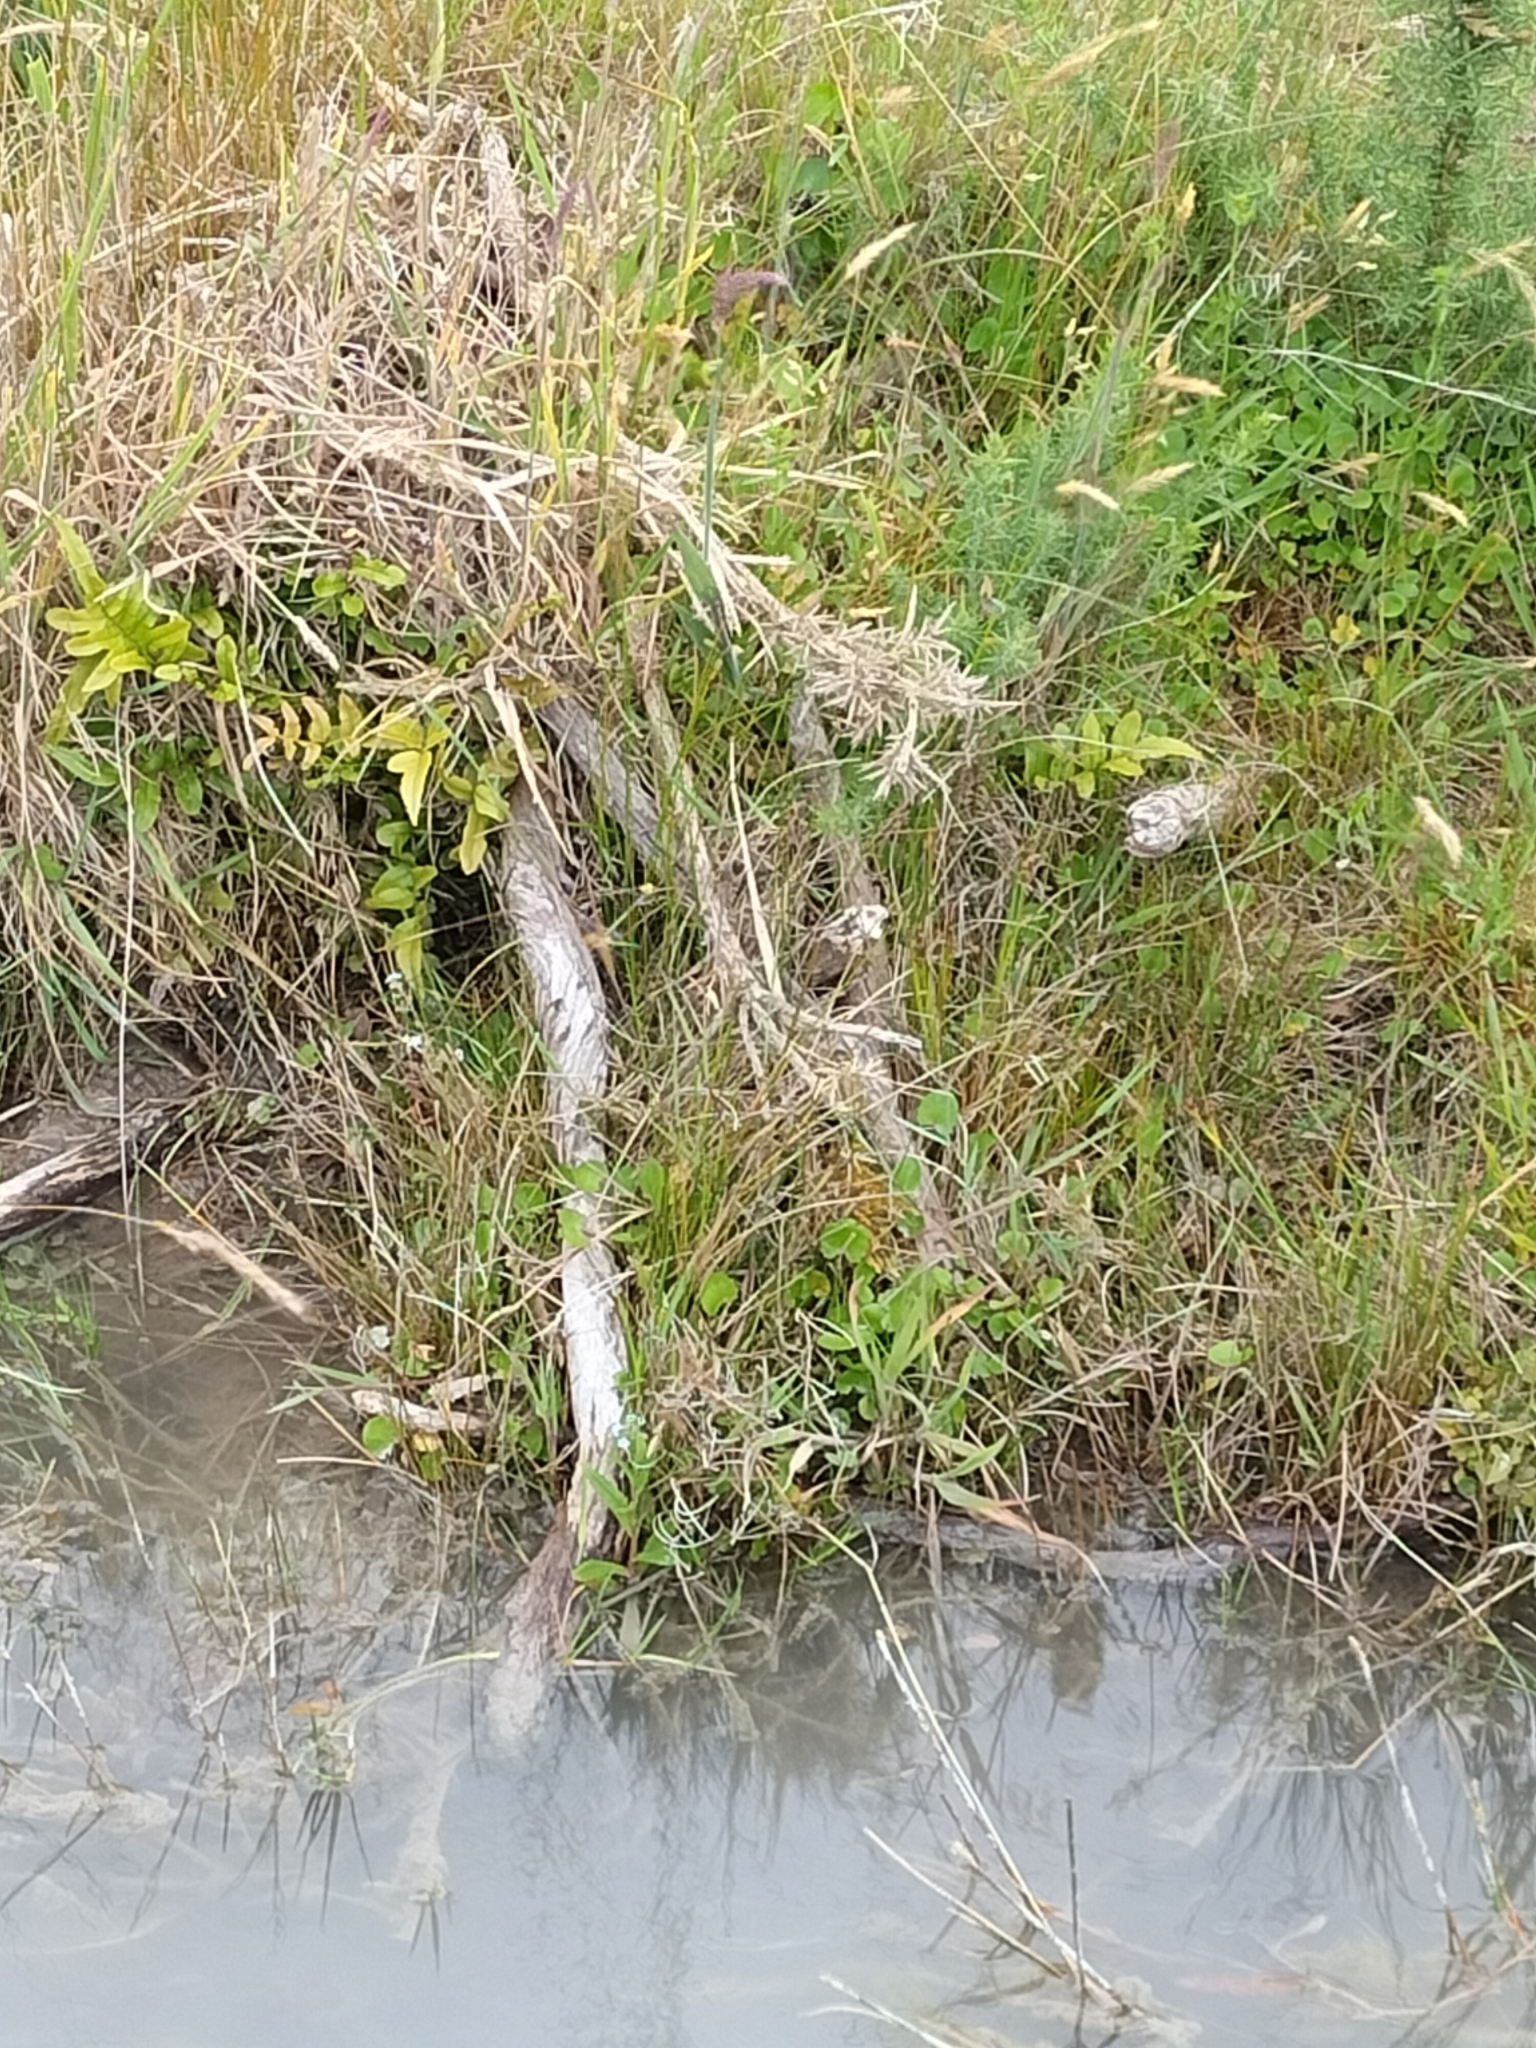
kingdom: Plantae
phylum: Tracheophyta
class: Magnoliopsida
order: Apiales
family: Apiaceae
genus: Centella
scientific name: Centella uniflora
